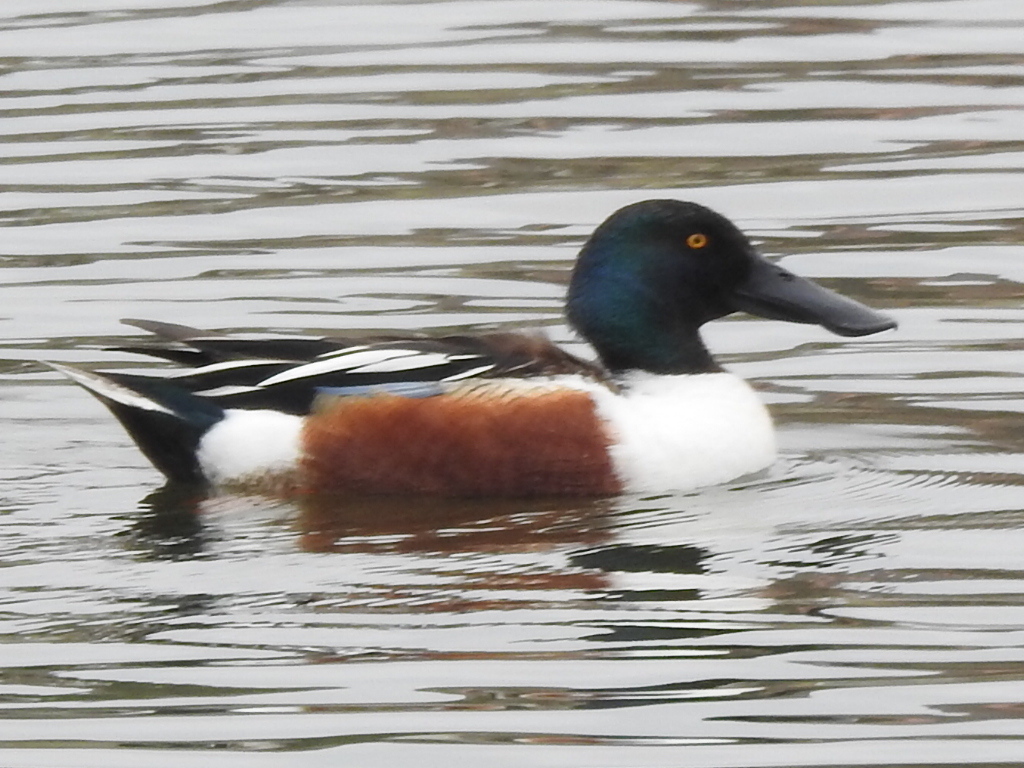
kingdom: Animalia
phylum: Chordata
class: Aves
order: Anseriformes
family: Anatidae
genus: Spatula
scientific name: Spatula clypeata
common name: Northern shoveler
